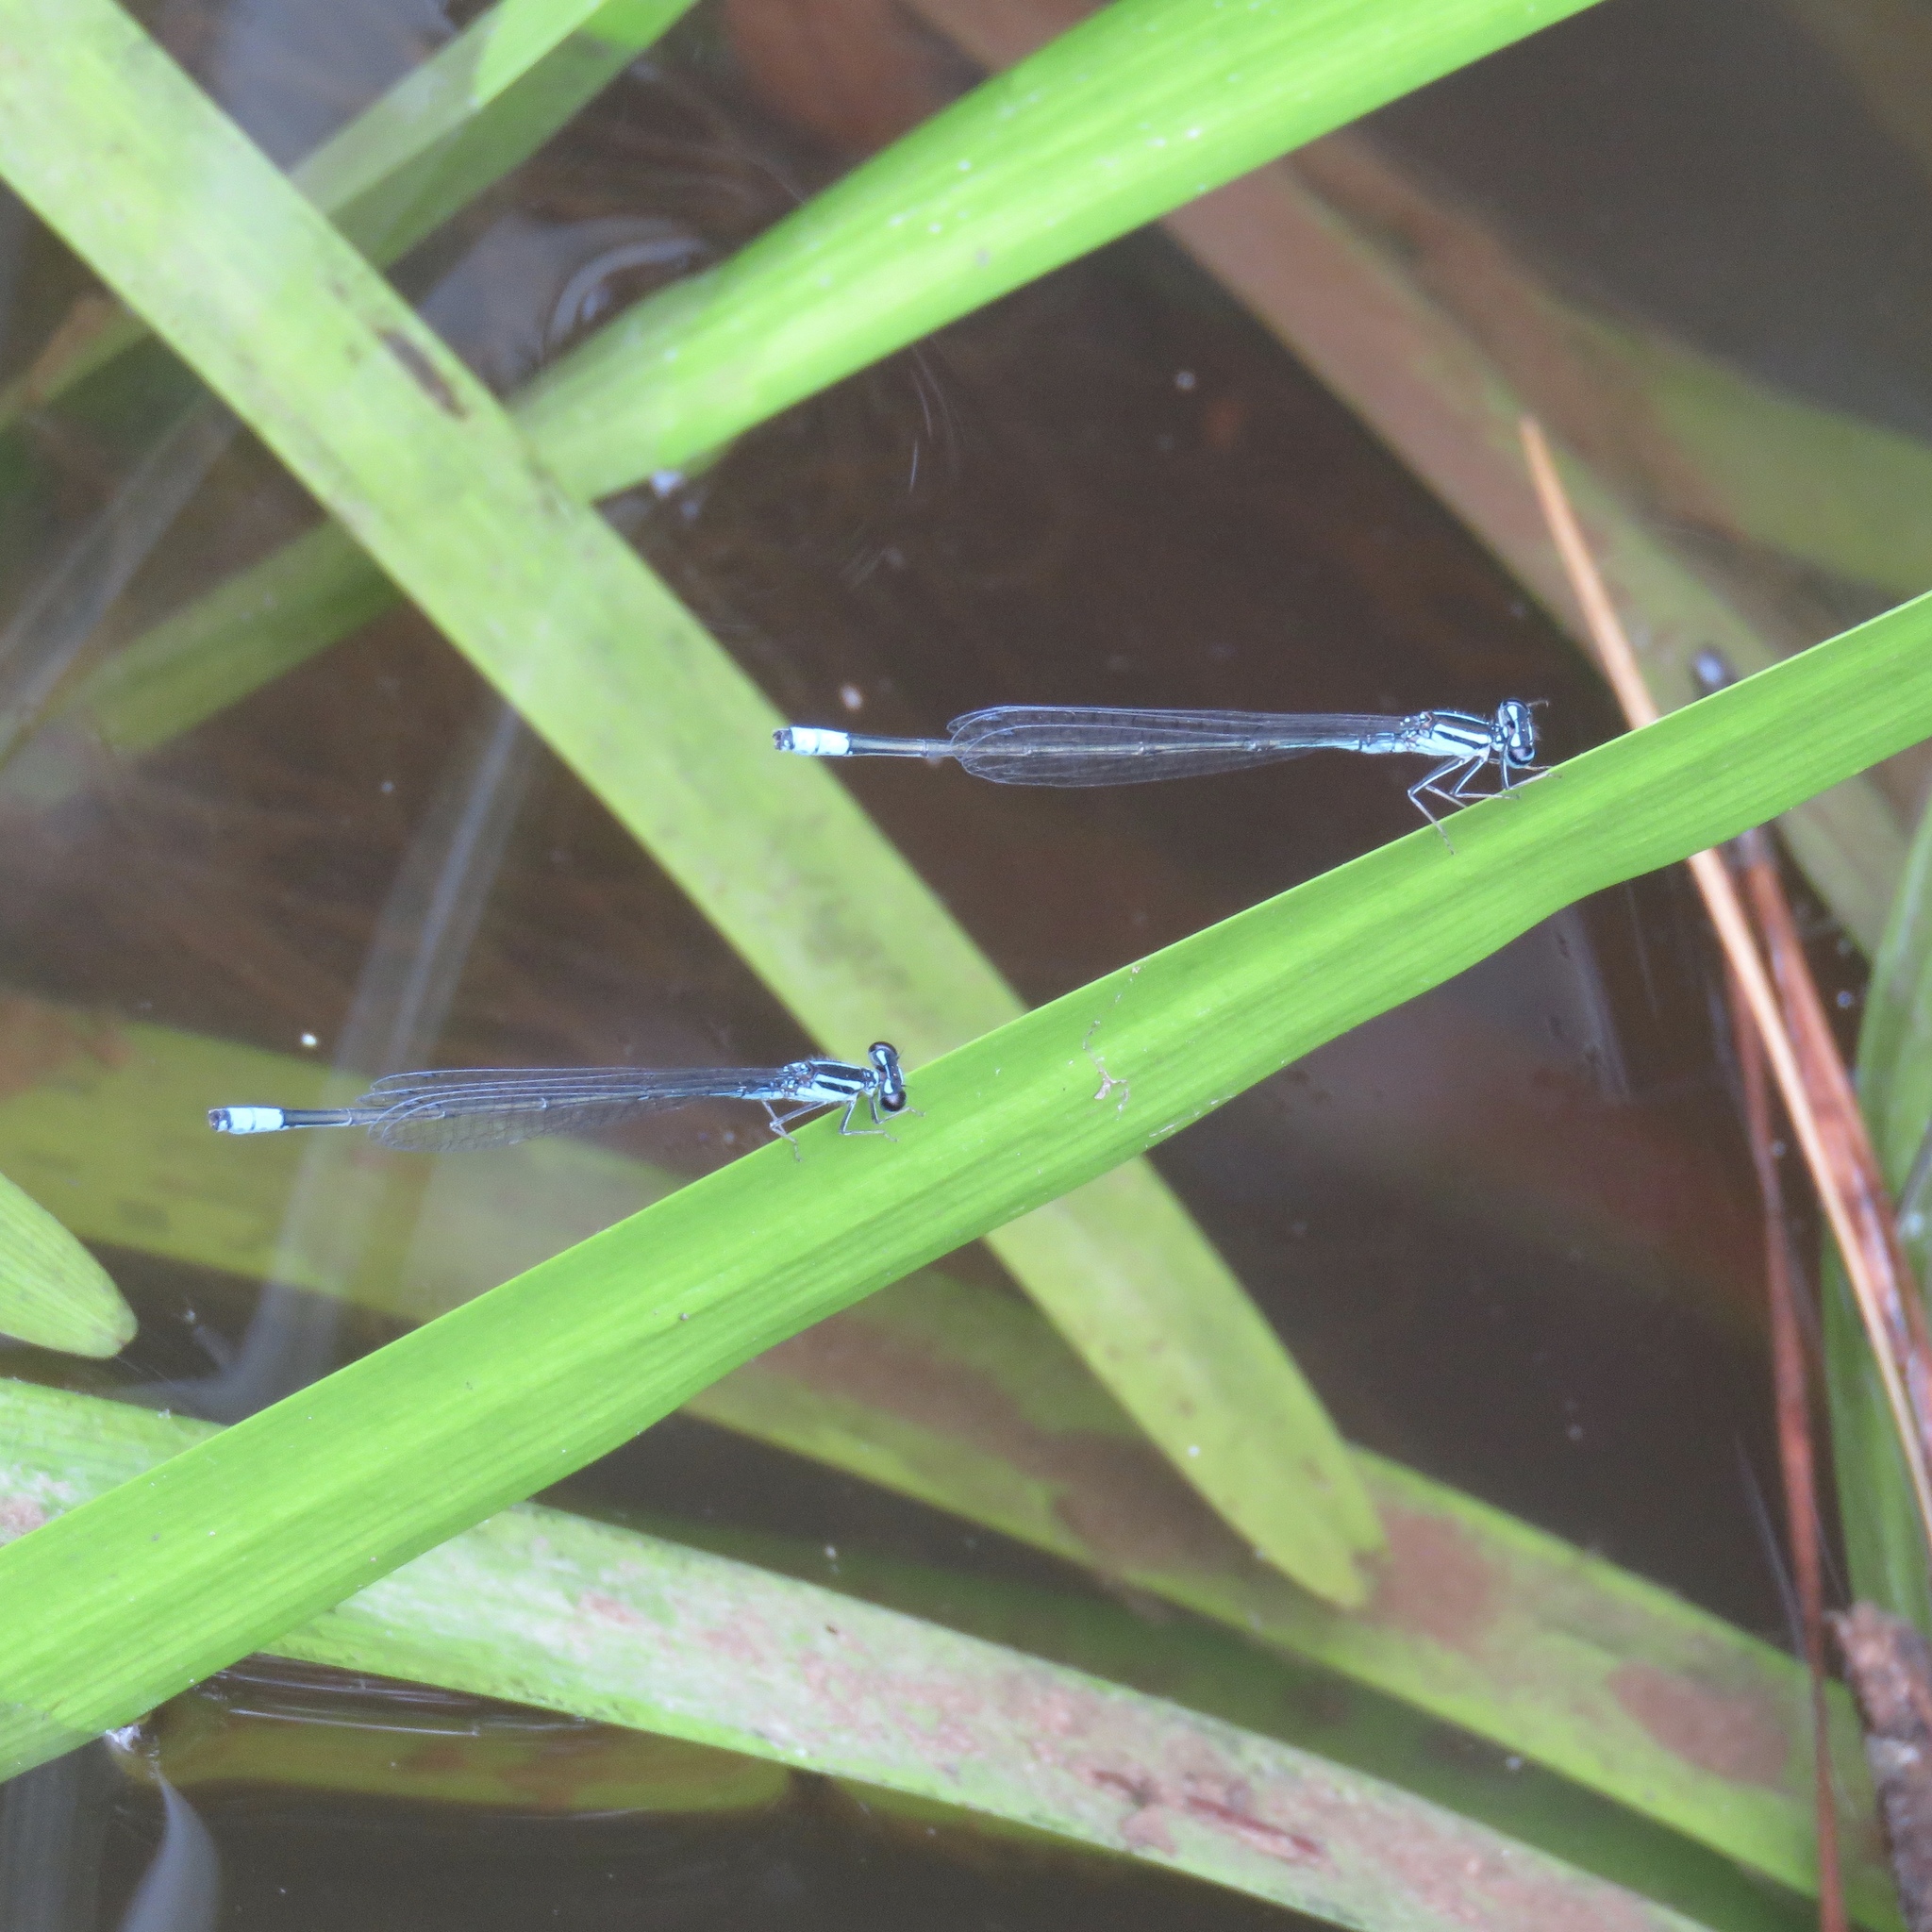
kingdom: Animalia
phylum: Arthropoda
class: Insecta
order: Odonata
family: Coenagrionidae
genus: Enallagma
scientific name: Enallagma divagans
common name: Turquoise bluet
